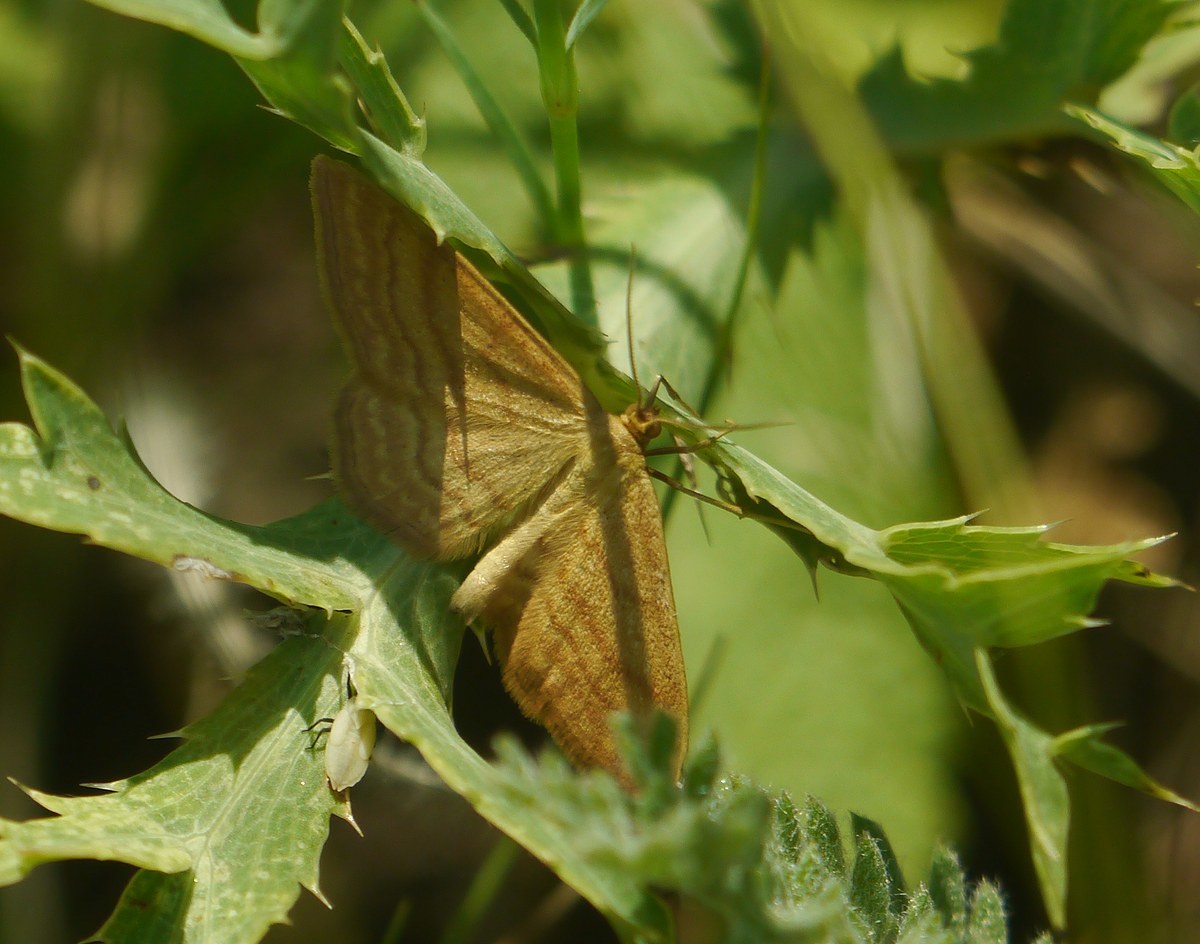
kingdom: Animalia
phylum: Arthropoda
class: Insecta
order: Lepidoptera
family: Geometridae
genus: Idaea
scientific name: Idaea ochrata
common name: Bright wave
